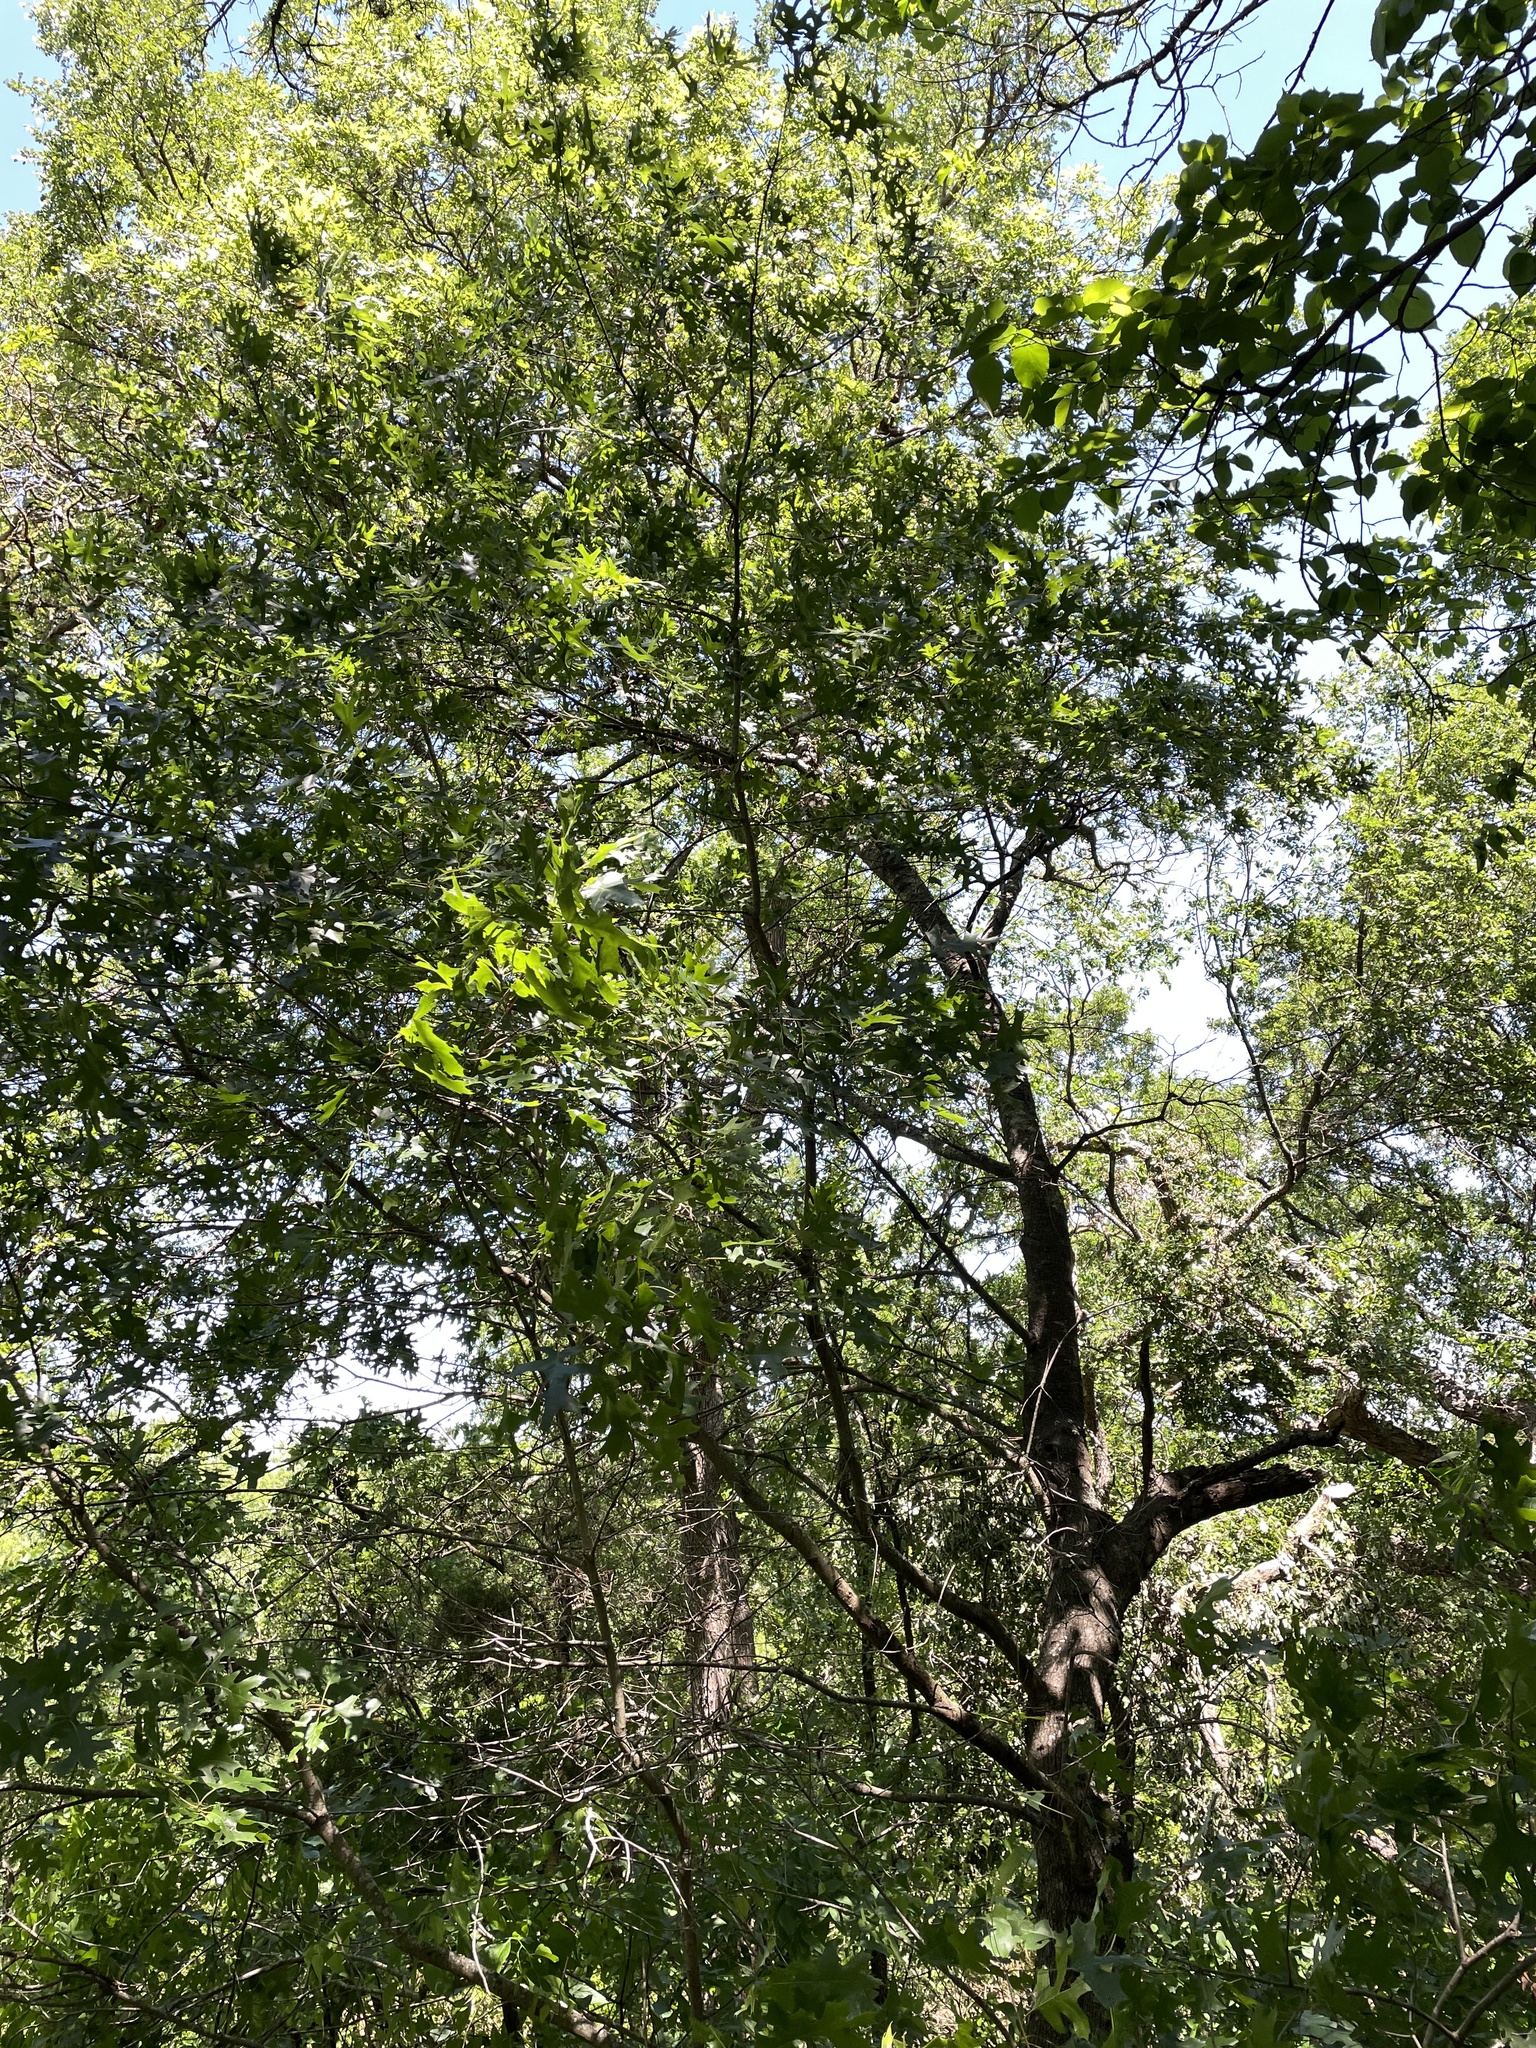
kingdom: Plantae
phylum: Tracheophyta
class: Magnoliopsida
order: Fagales
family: Fagaceae
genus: Quercus
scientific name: Quercus shumardii
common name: Shumard oak
